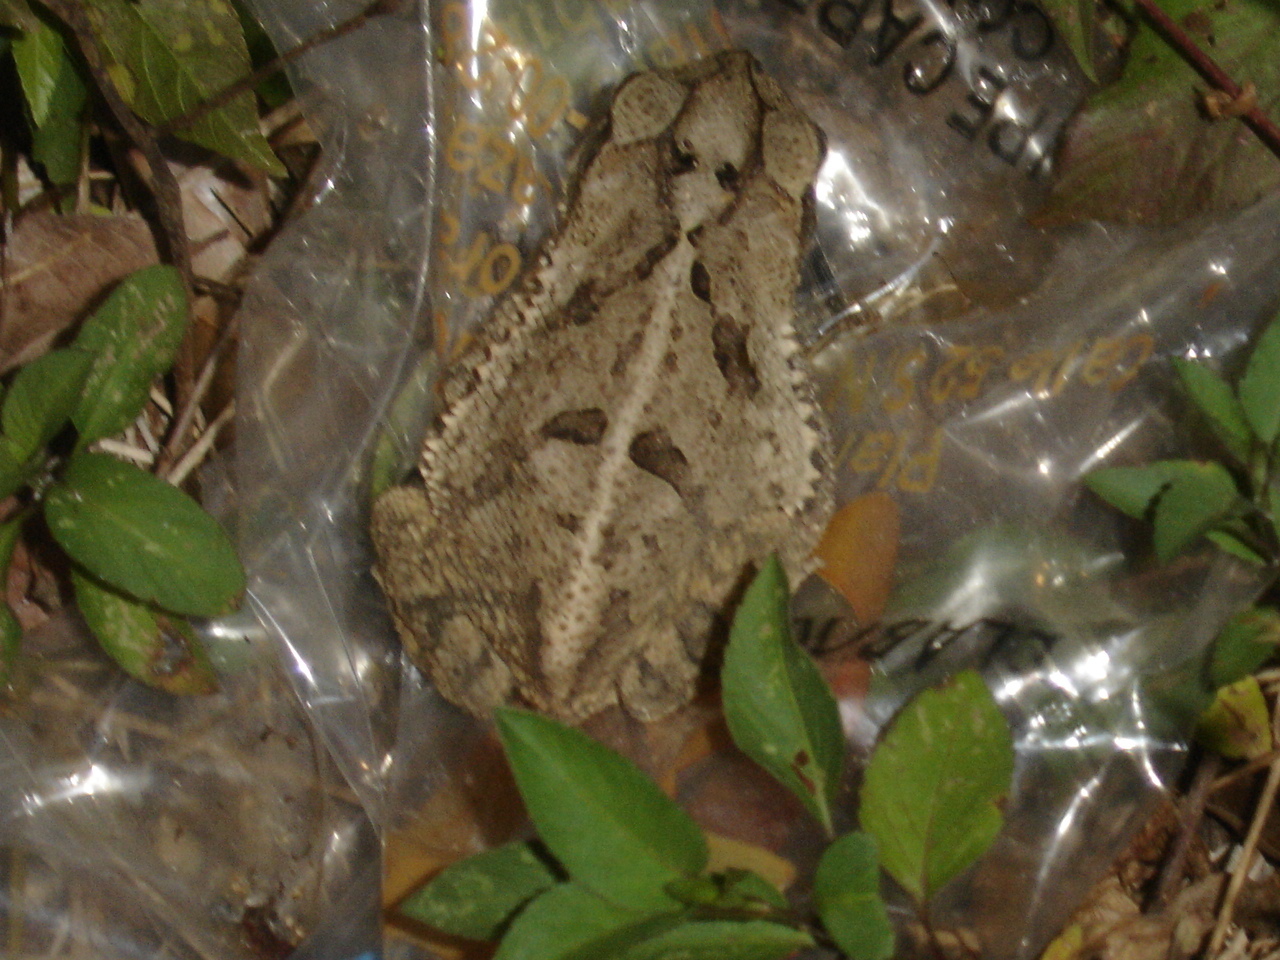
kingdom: Animalia
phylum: Chordata
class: Amphibia
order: Anura
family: Bufonidae
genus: Incilius
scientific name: Incilius valliceps
